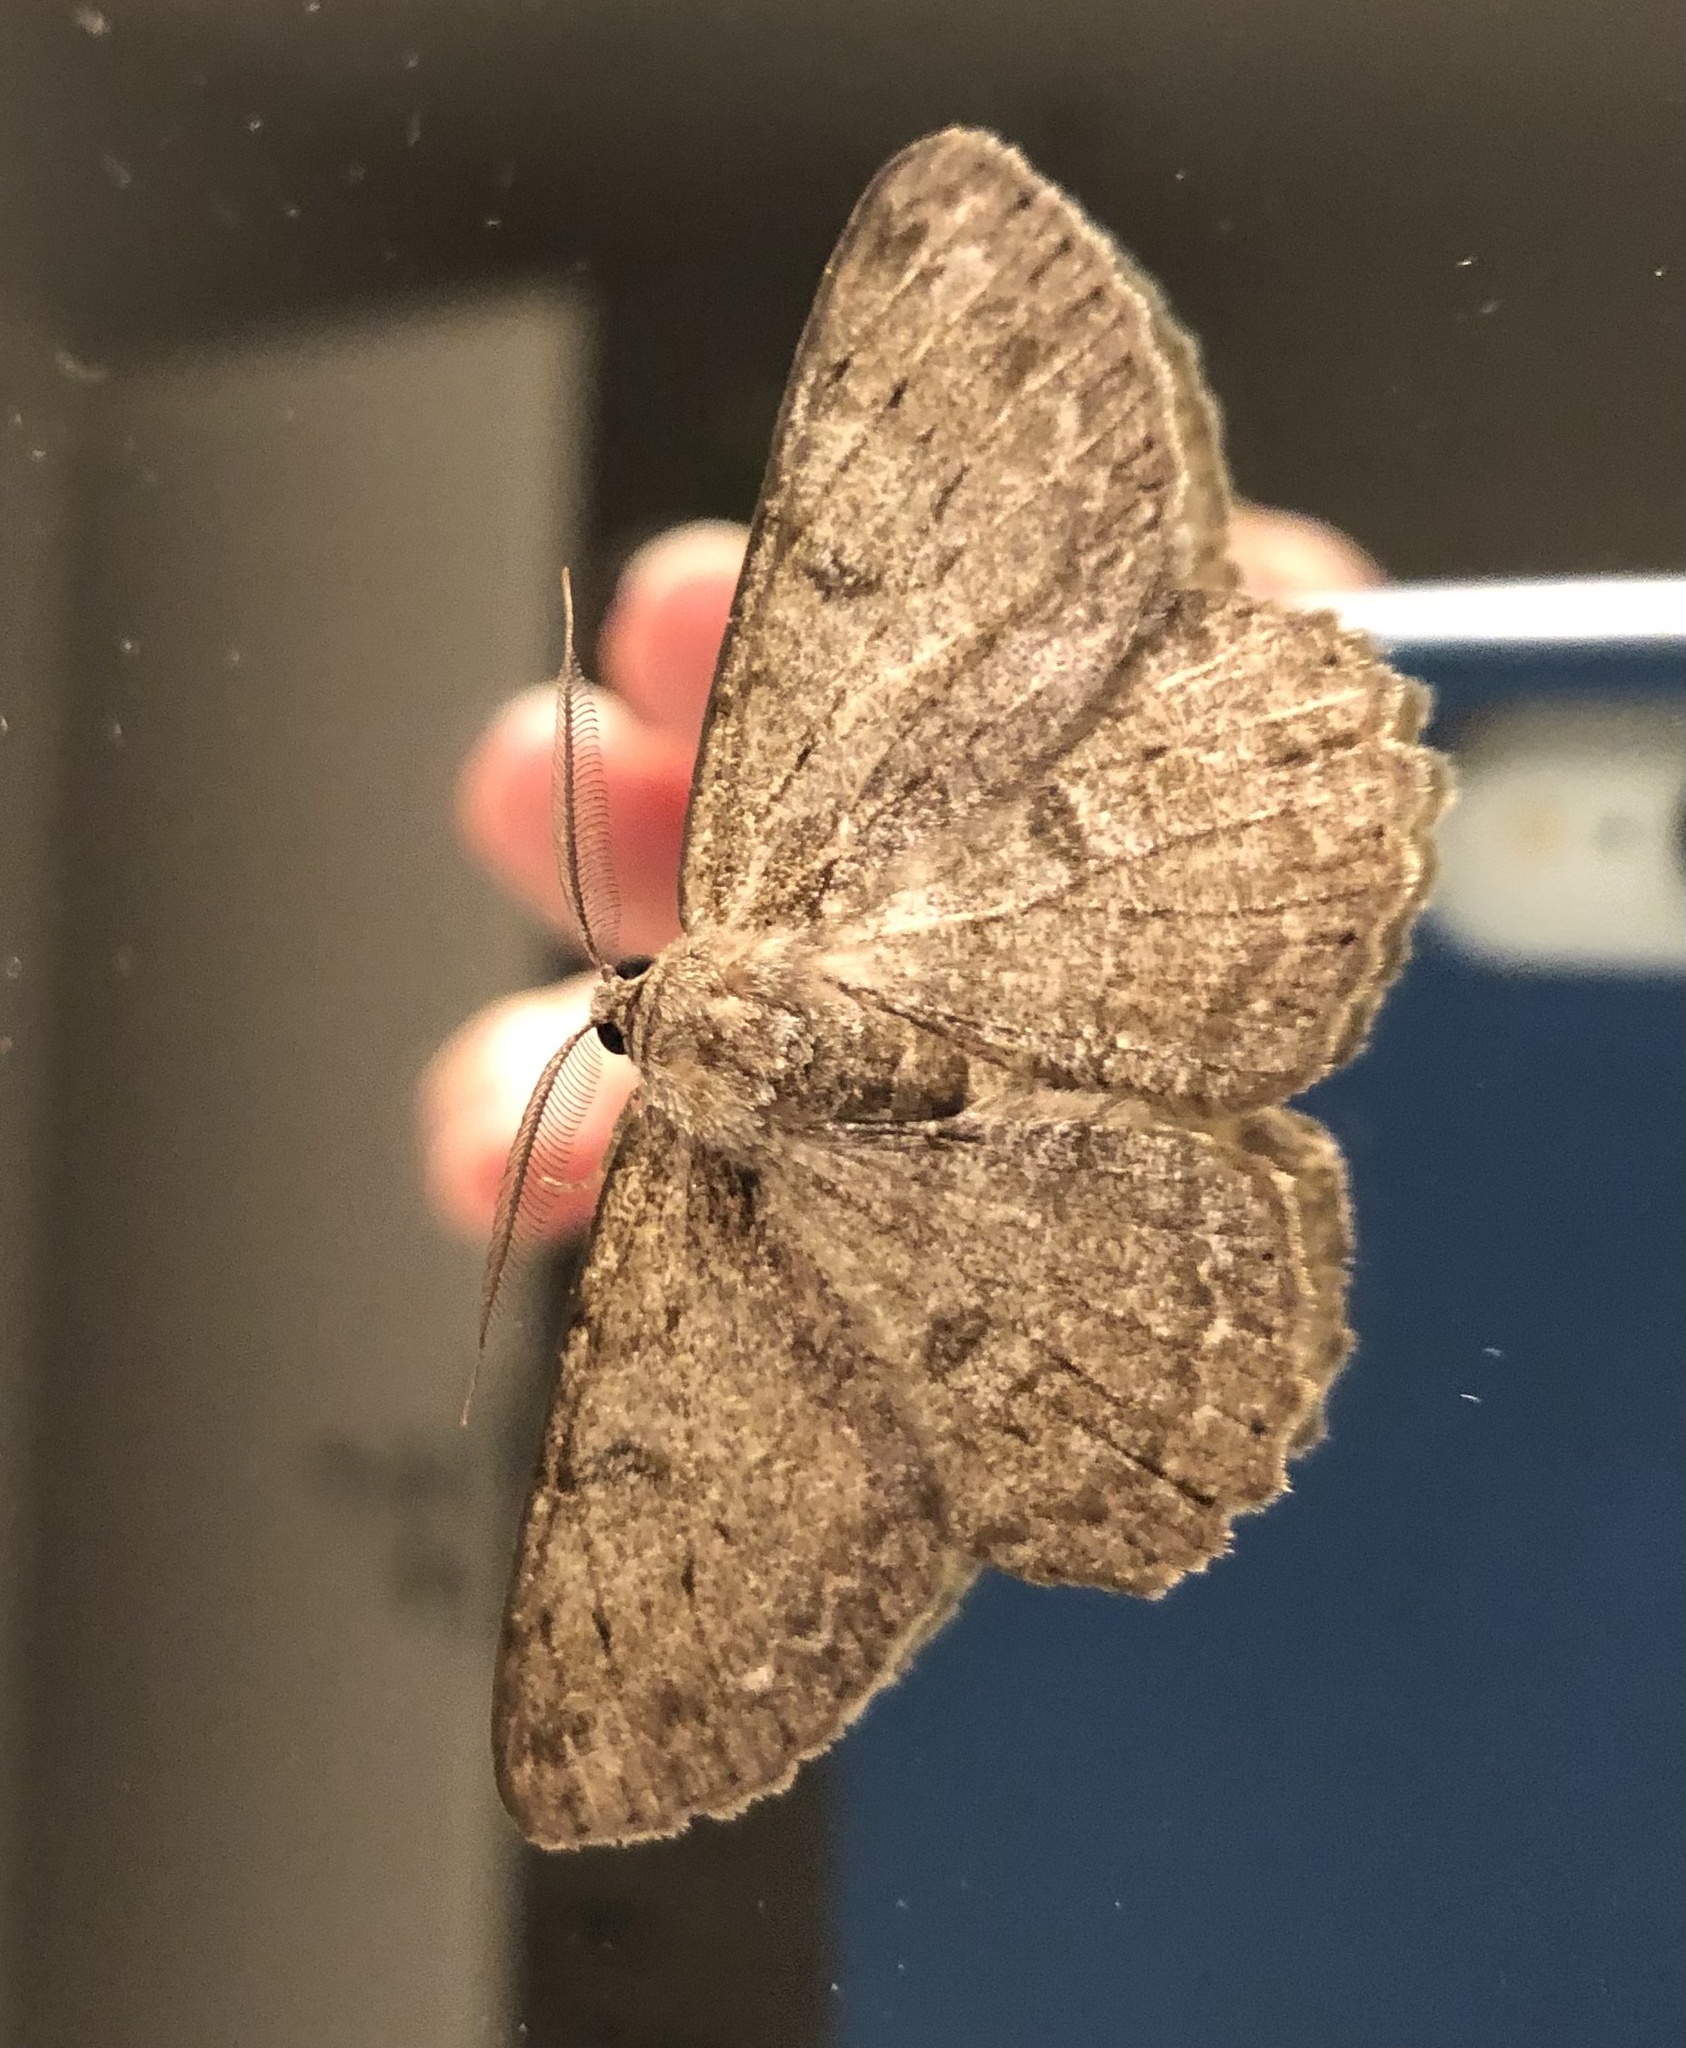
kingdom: Animalia
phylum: Arthropoda
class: Insecta
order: Lepidoptera
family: Geometridae
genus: Hypomecis
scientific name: Hypomecis punctinalis
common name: Pale oak beauty
